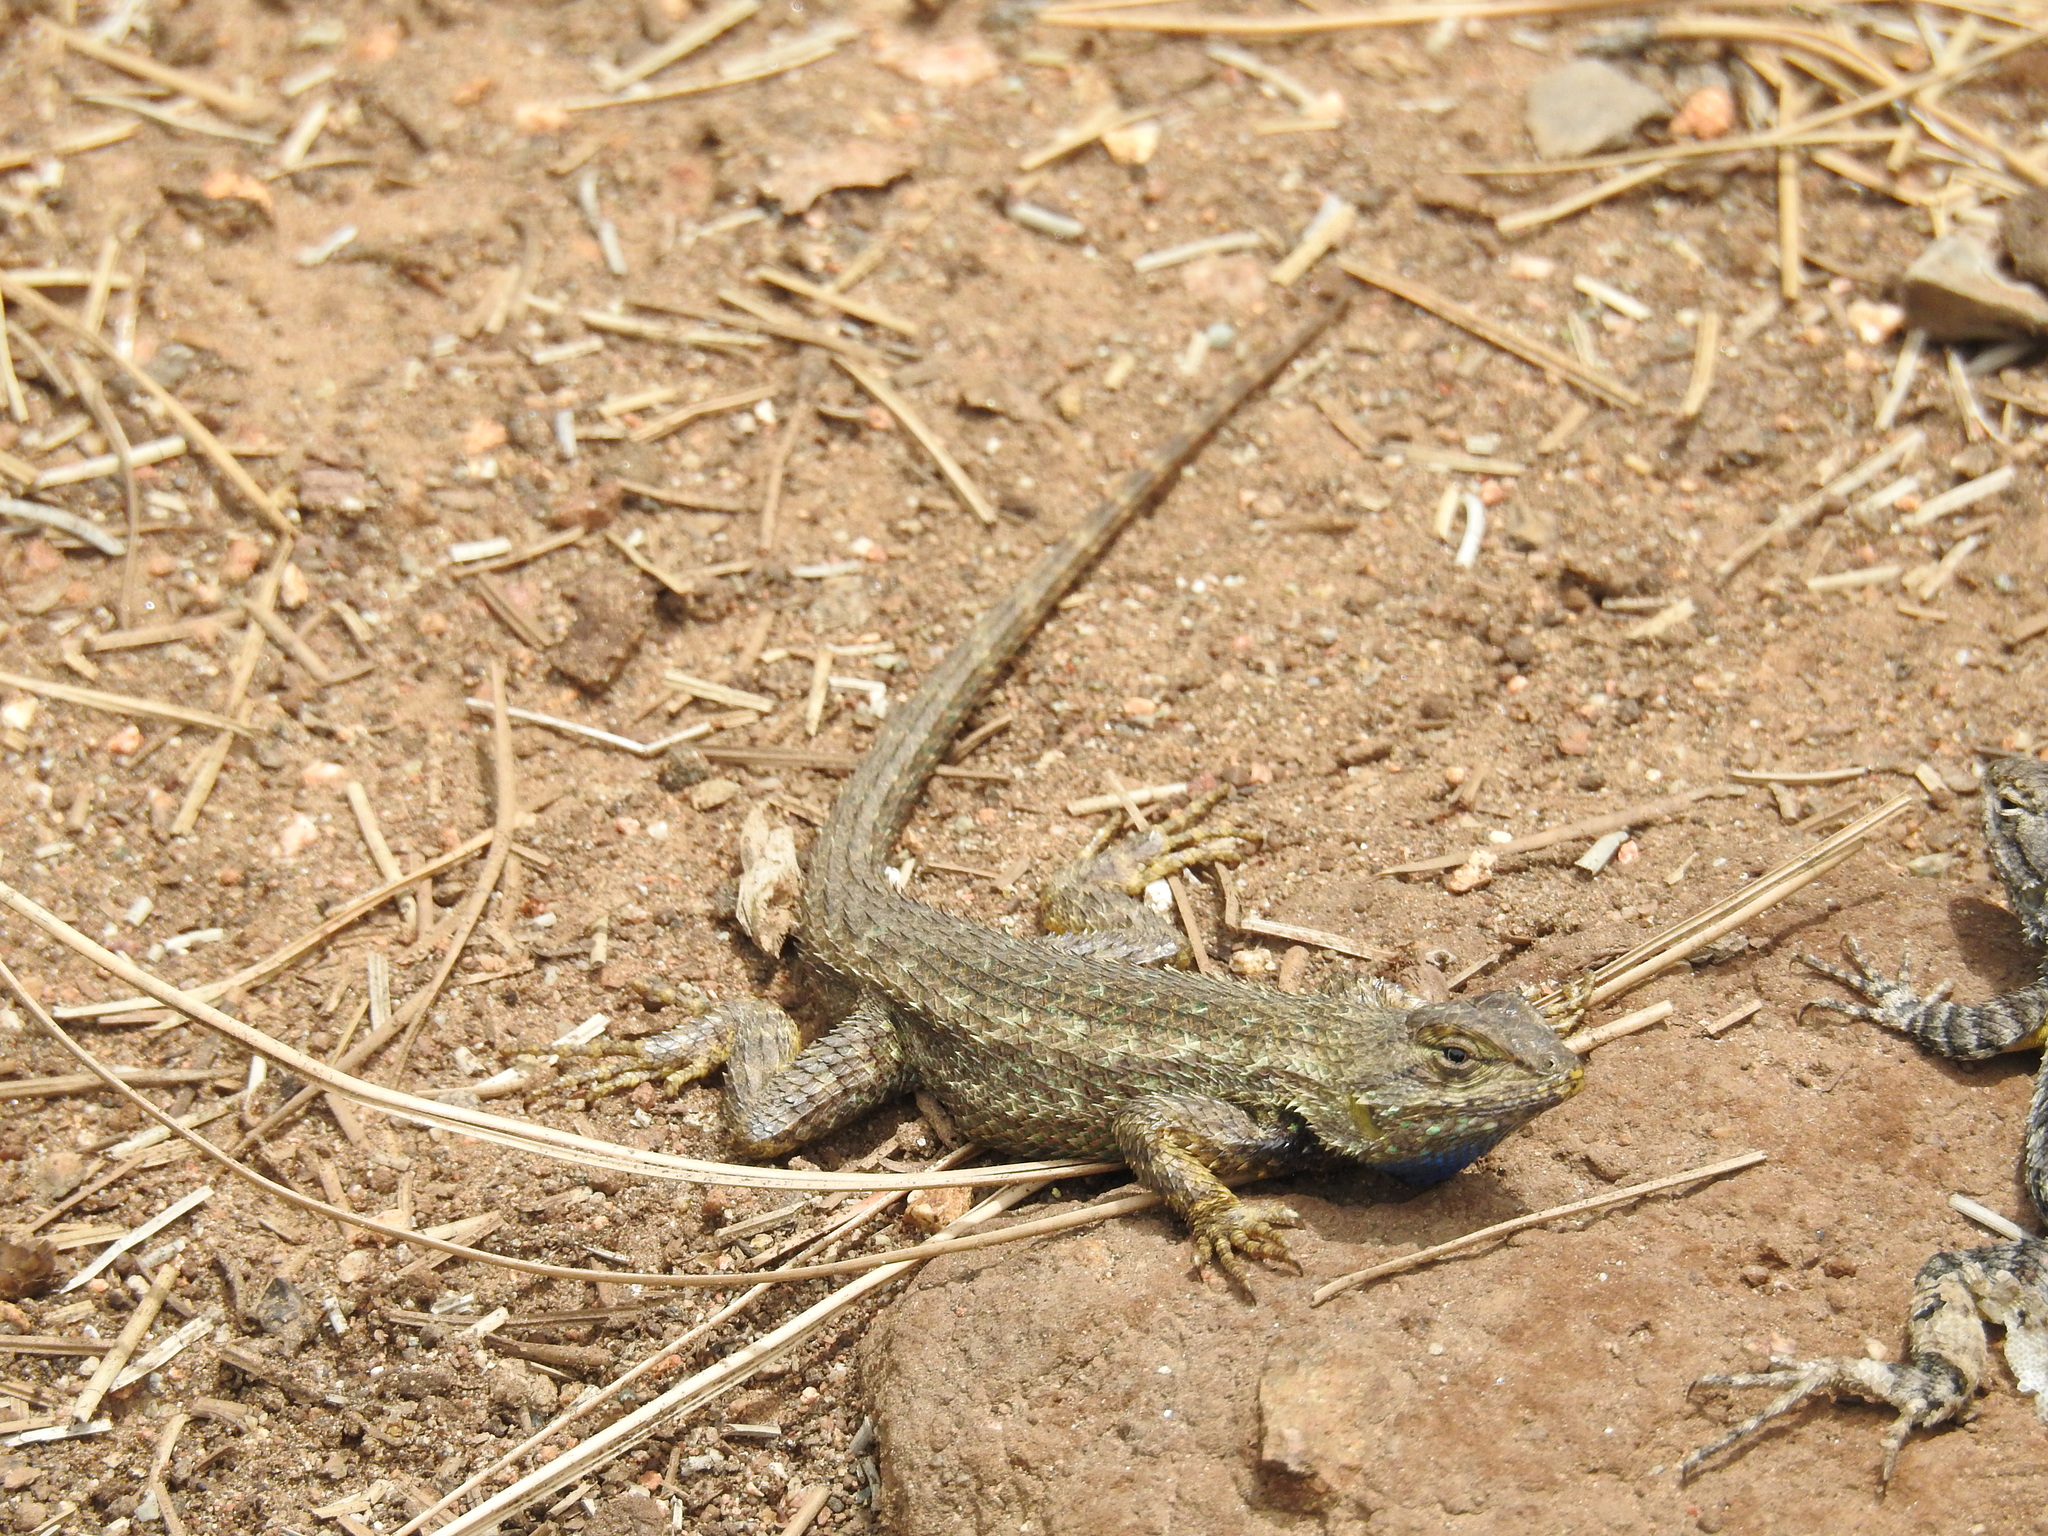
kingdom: Animalia
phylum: Chordata
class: Squamata
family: Phrynosomatidae
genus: Sceloporus
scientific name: Sceloporus occidentalis
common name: Western fence lizard
